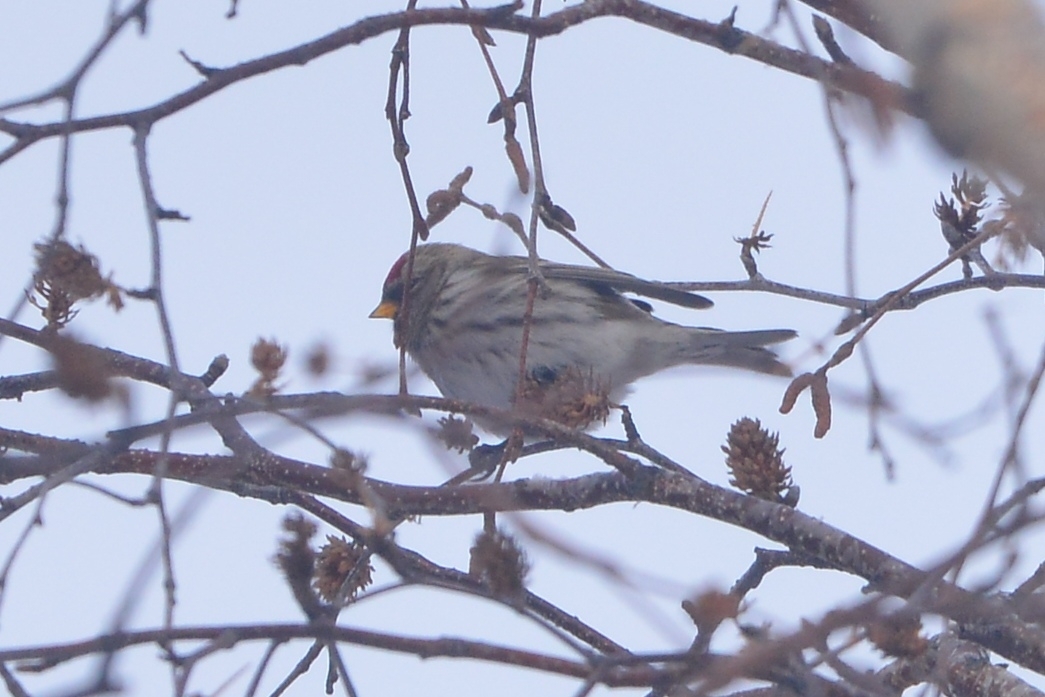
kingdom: Animalia
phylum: Chordata
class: Aves
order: Passeriformes
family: Fringillidae
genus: Acanthis
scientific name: Acanthis flammea
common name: Common redpoll
